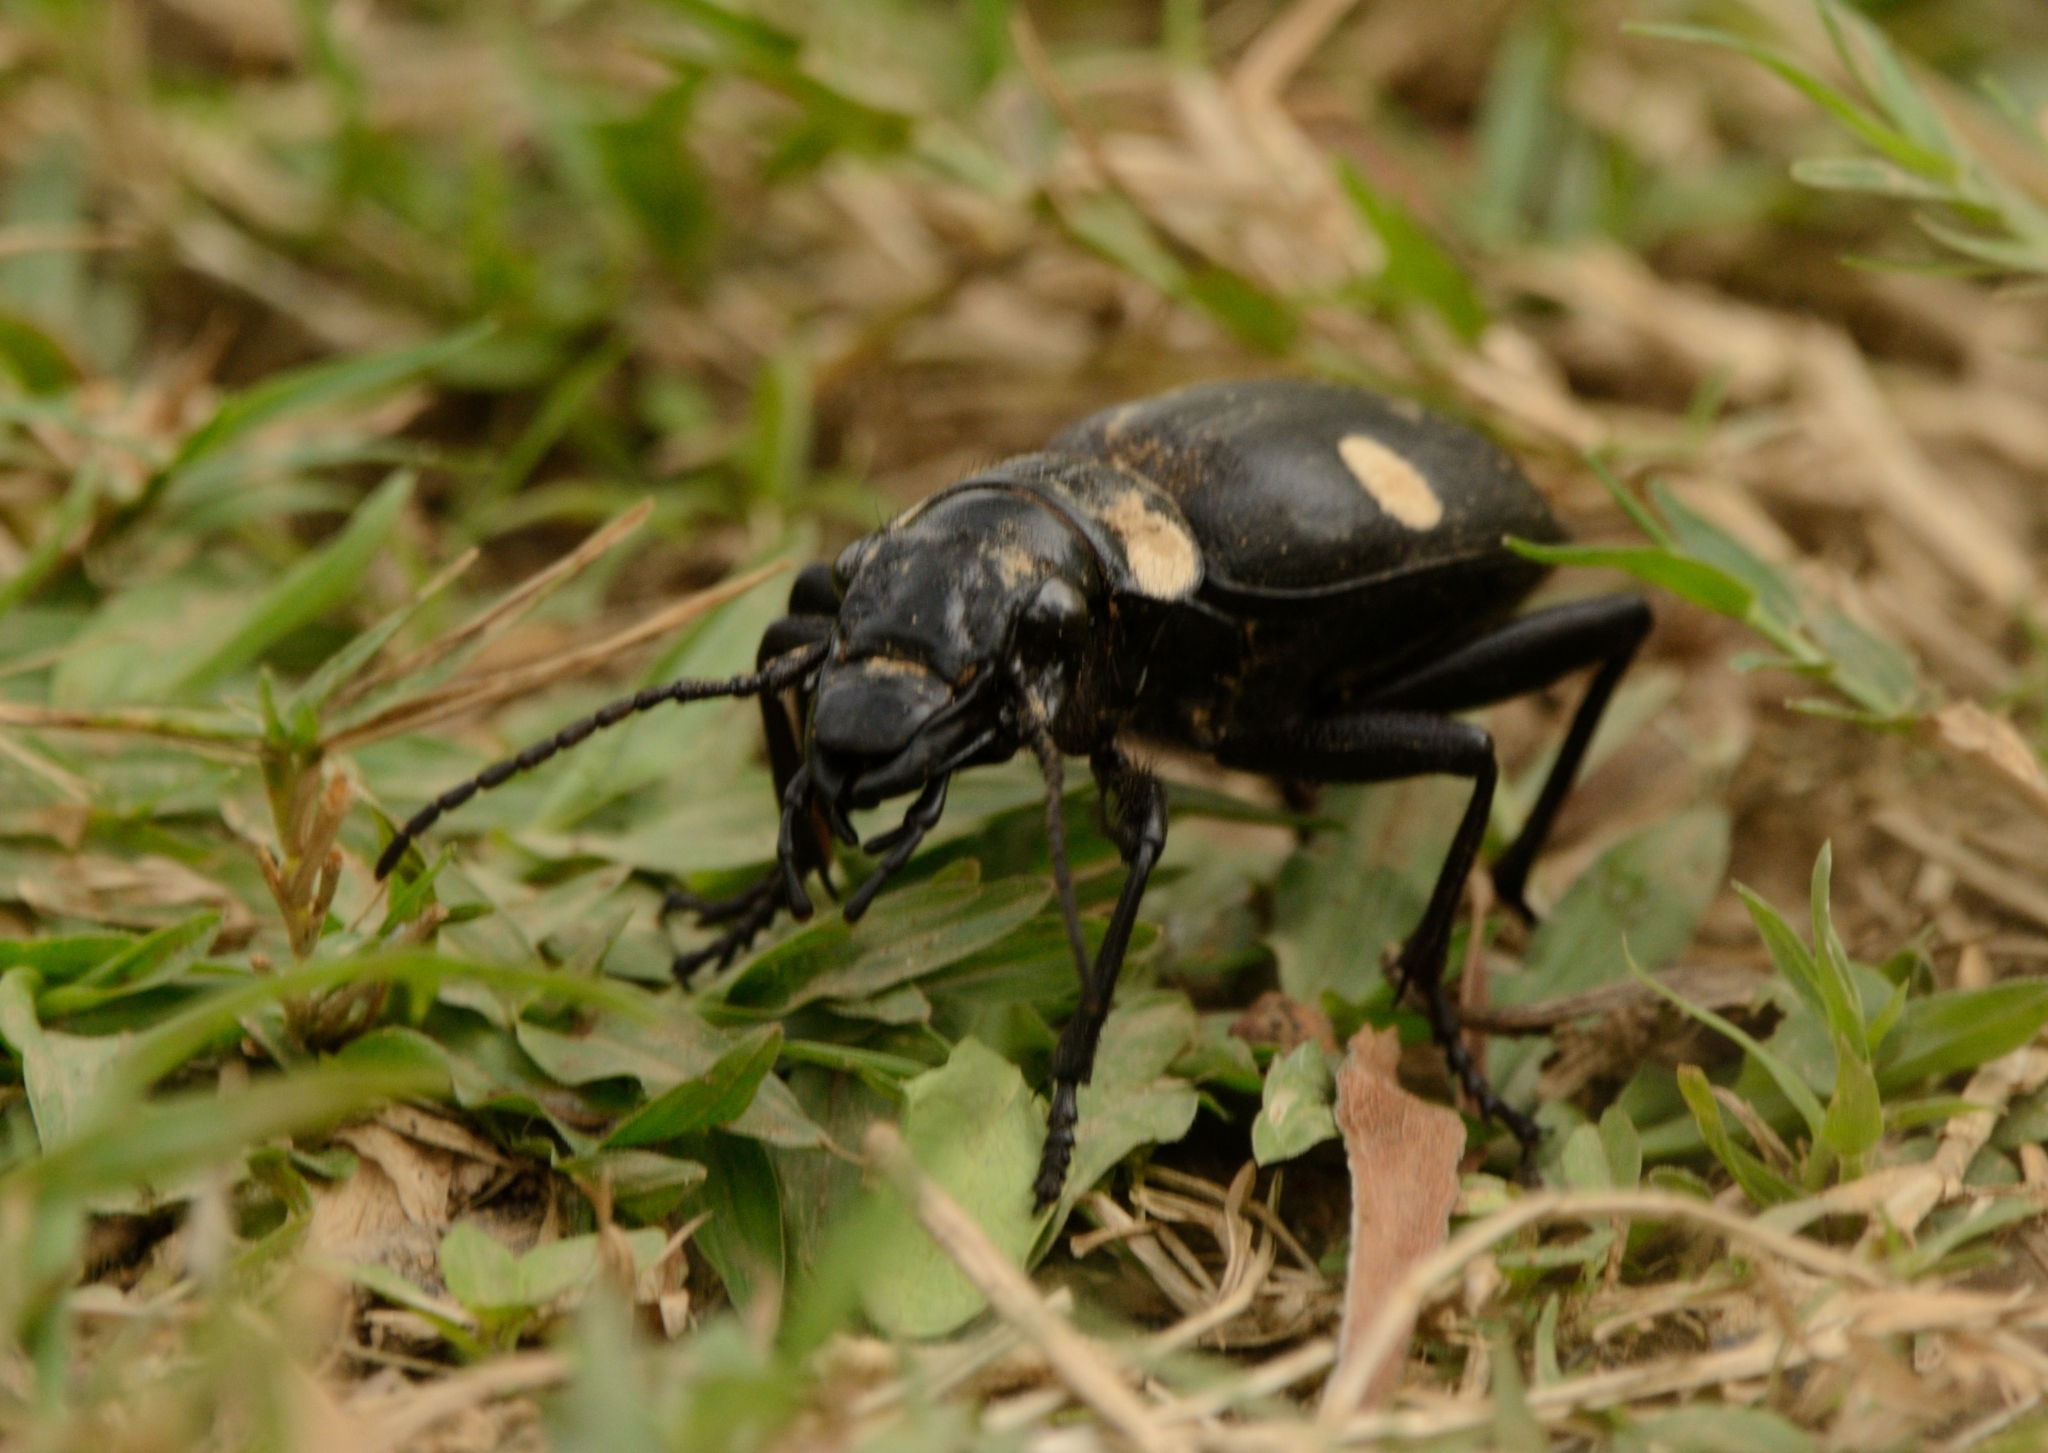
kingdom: Animalia
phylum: Arthropoda
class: Insecta
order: Coleoptera
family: Carabidae
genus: Anthia
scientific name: Anthia sexguttata
